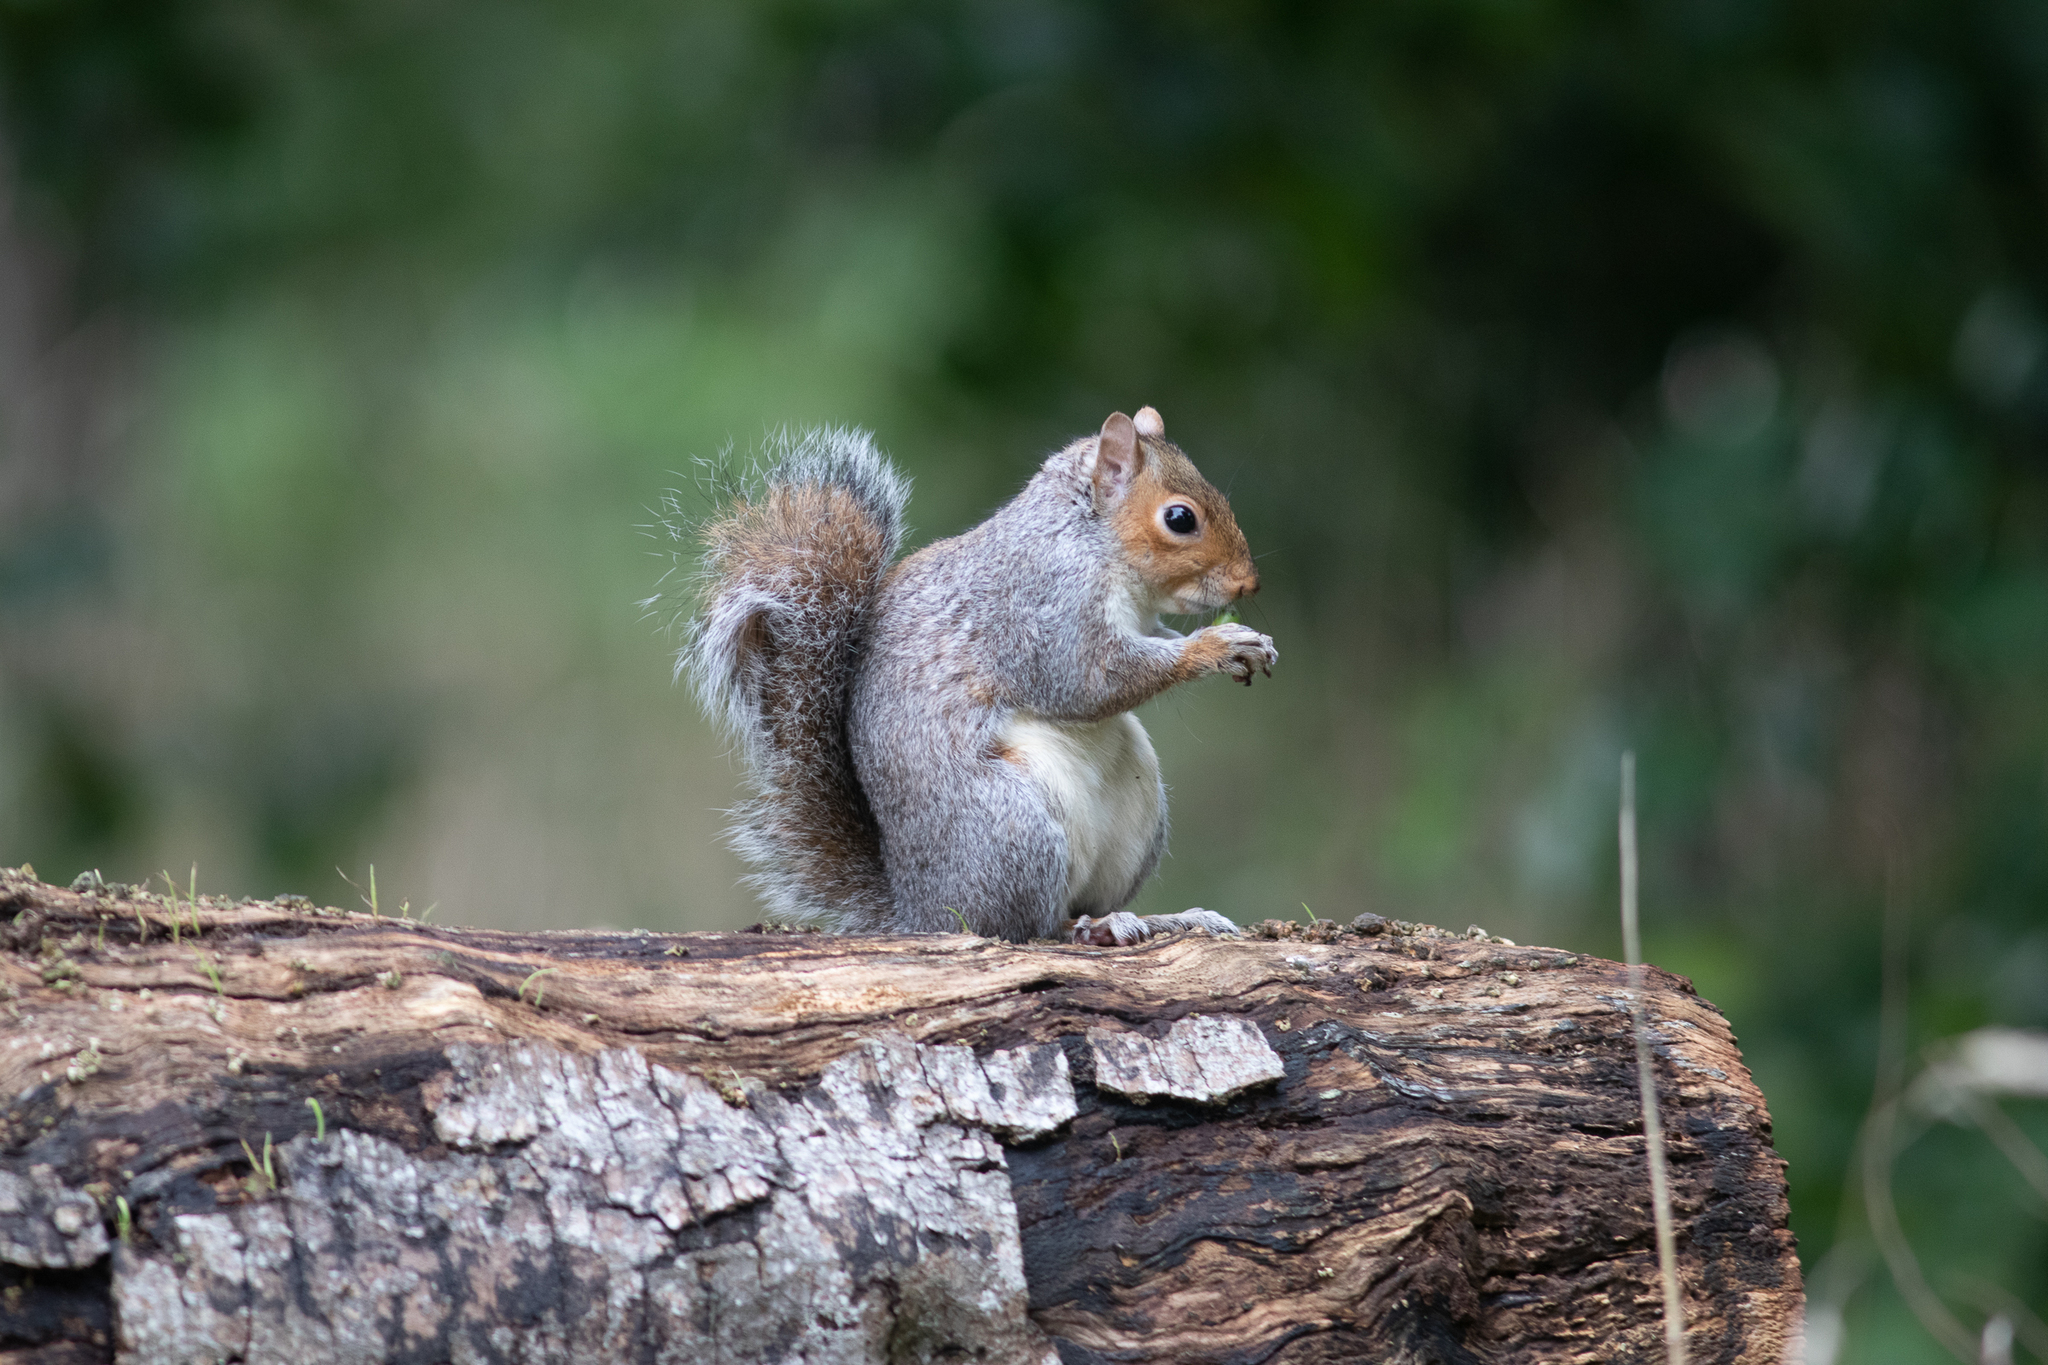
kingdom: Animalia
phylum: Chordata
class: Mammalia
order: Rodentia
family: Sciuridae
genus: Sciurus
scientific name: Sciurus carolinensis
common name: Eastern gray squirrel
